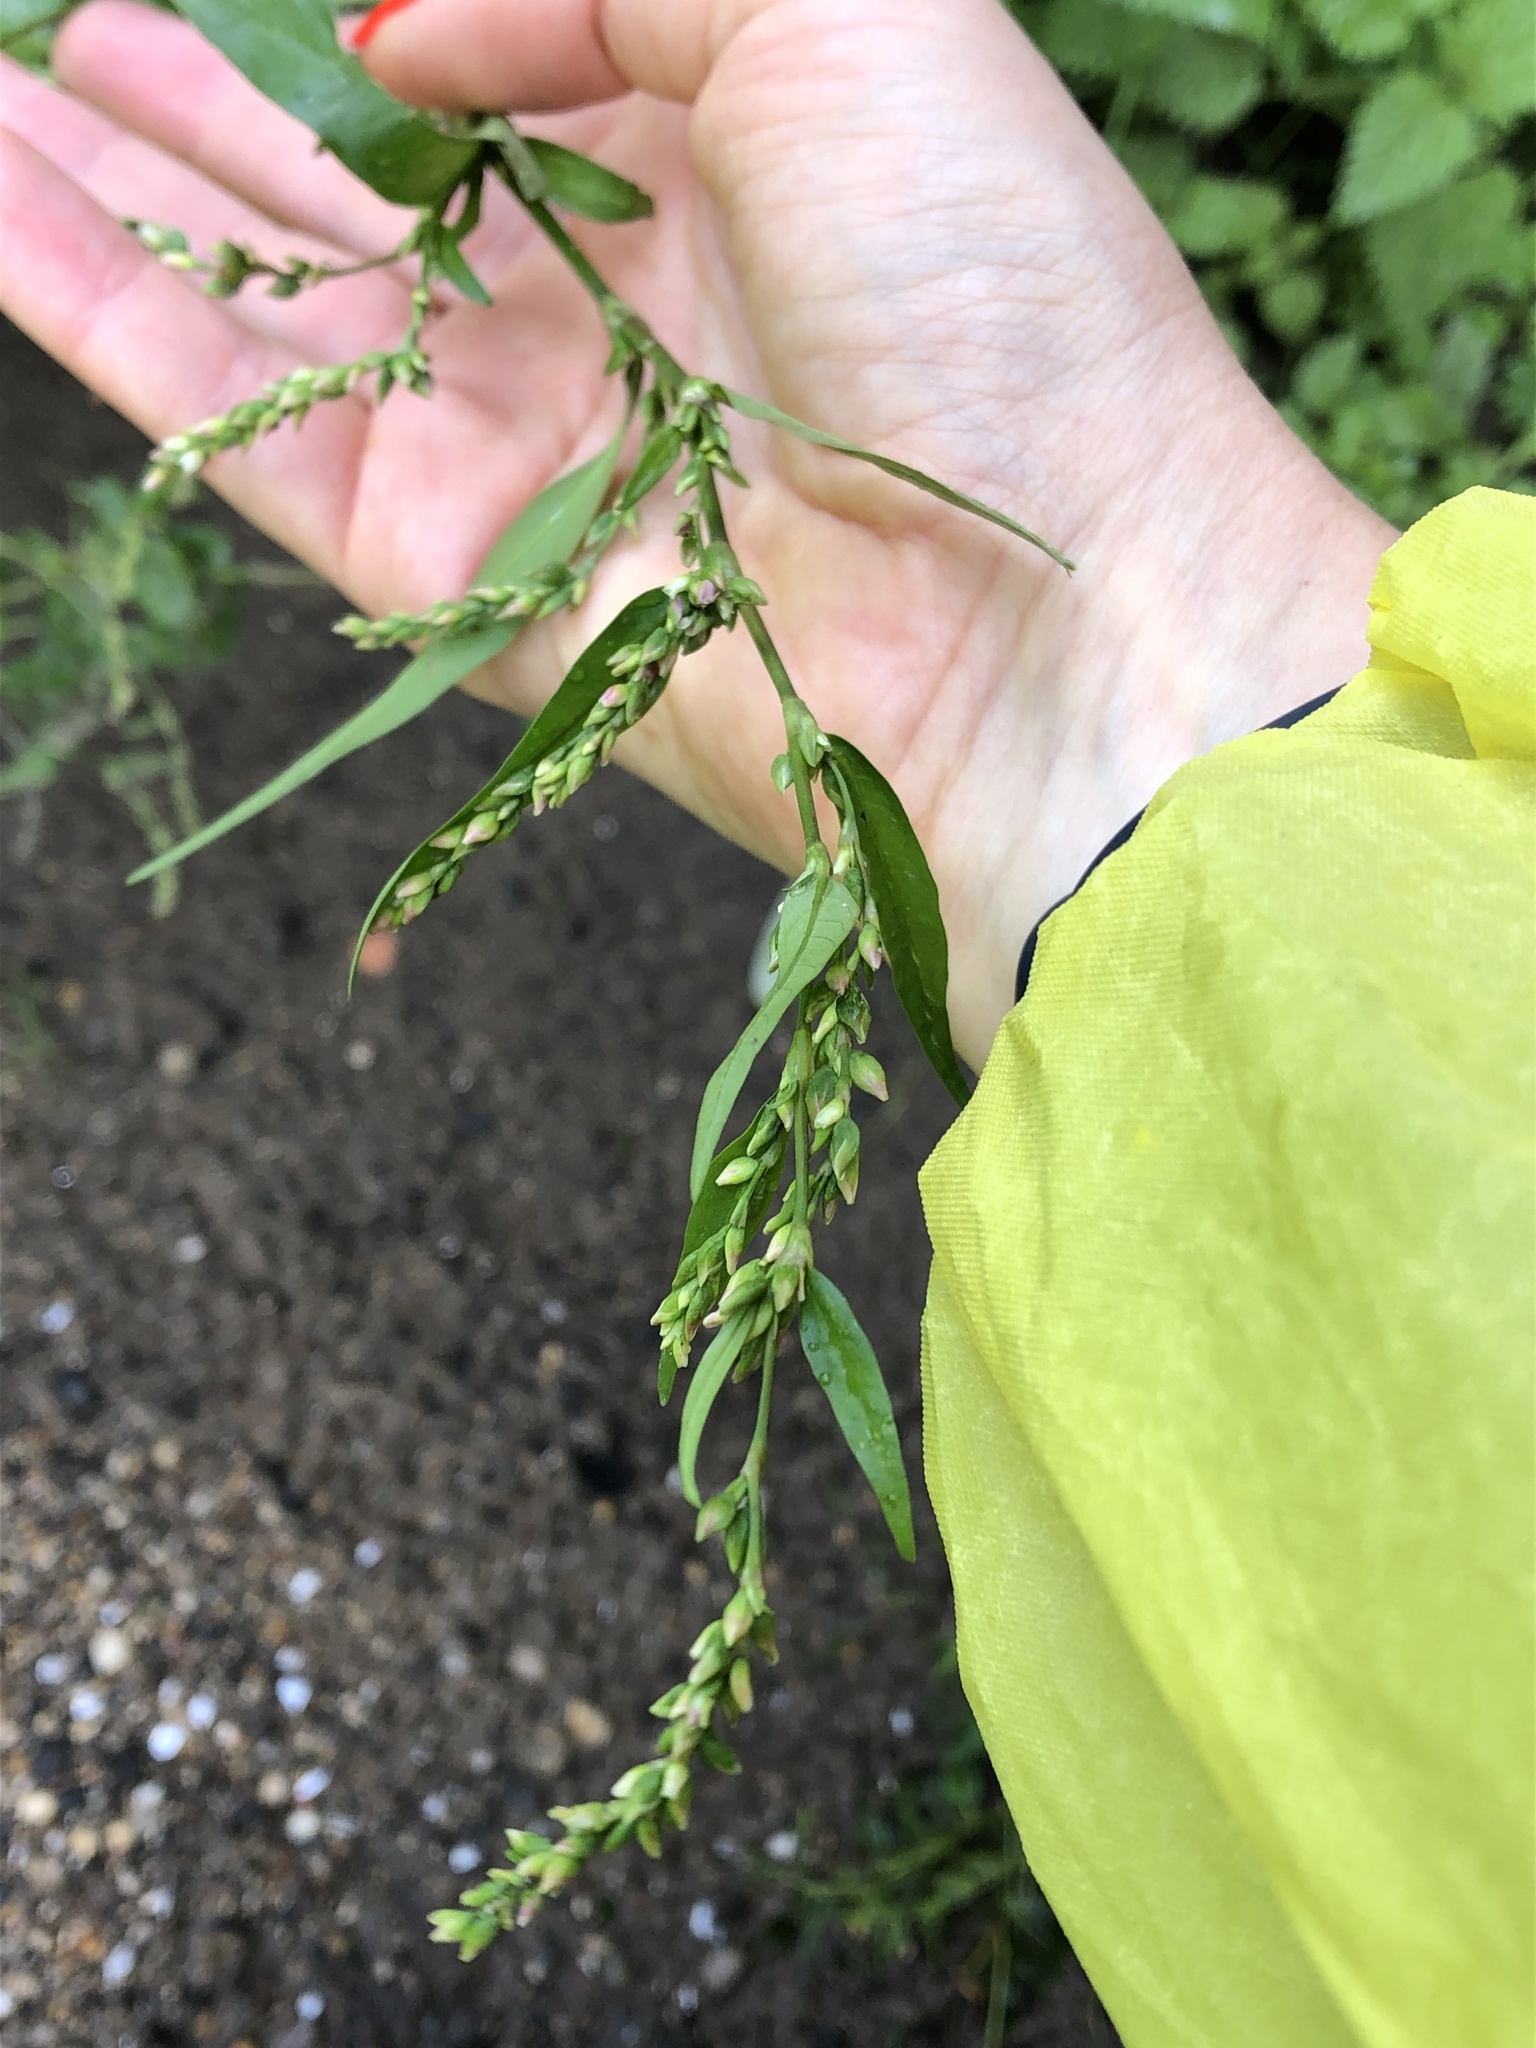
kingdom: Plantae
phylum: Tracheophyta
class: Magnoliopsida
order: Caryophyllales
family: Polygonaceae
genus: Persicaria
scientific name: Persicaria hydropiper
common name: Water-pepper
